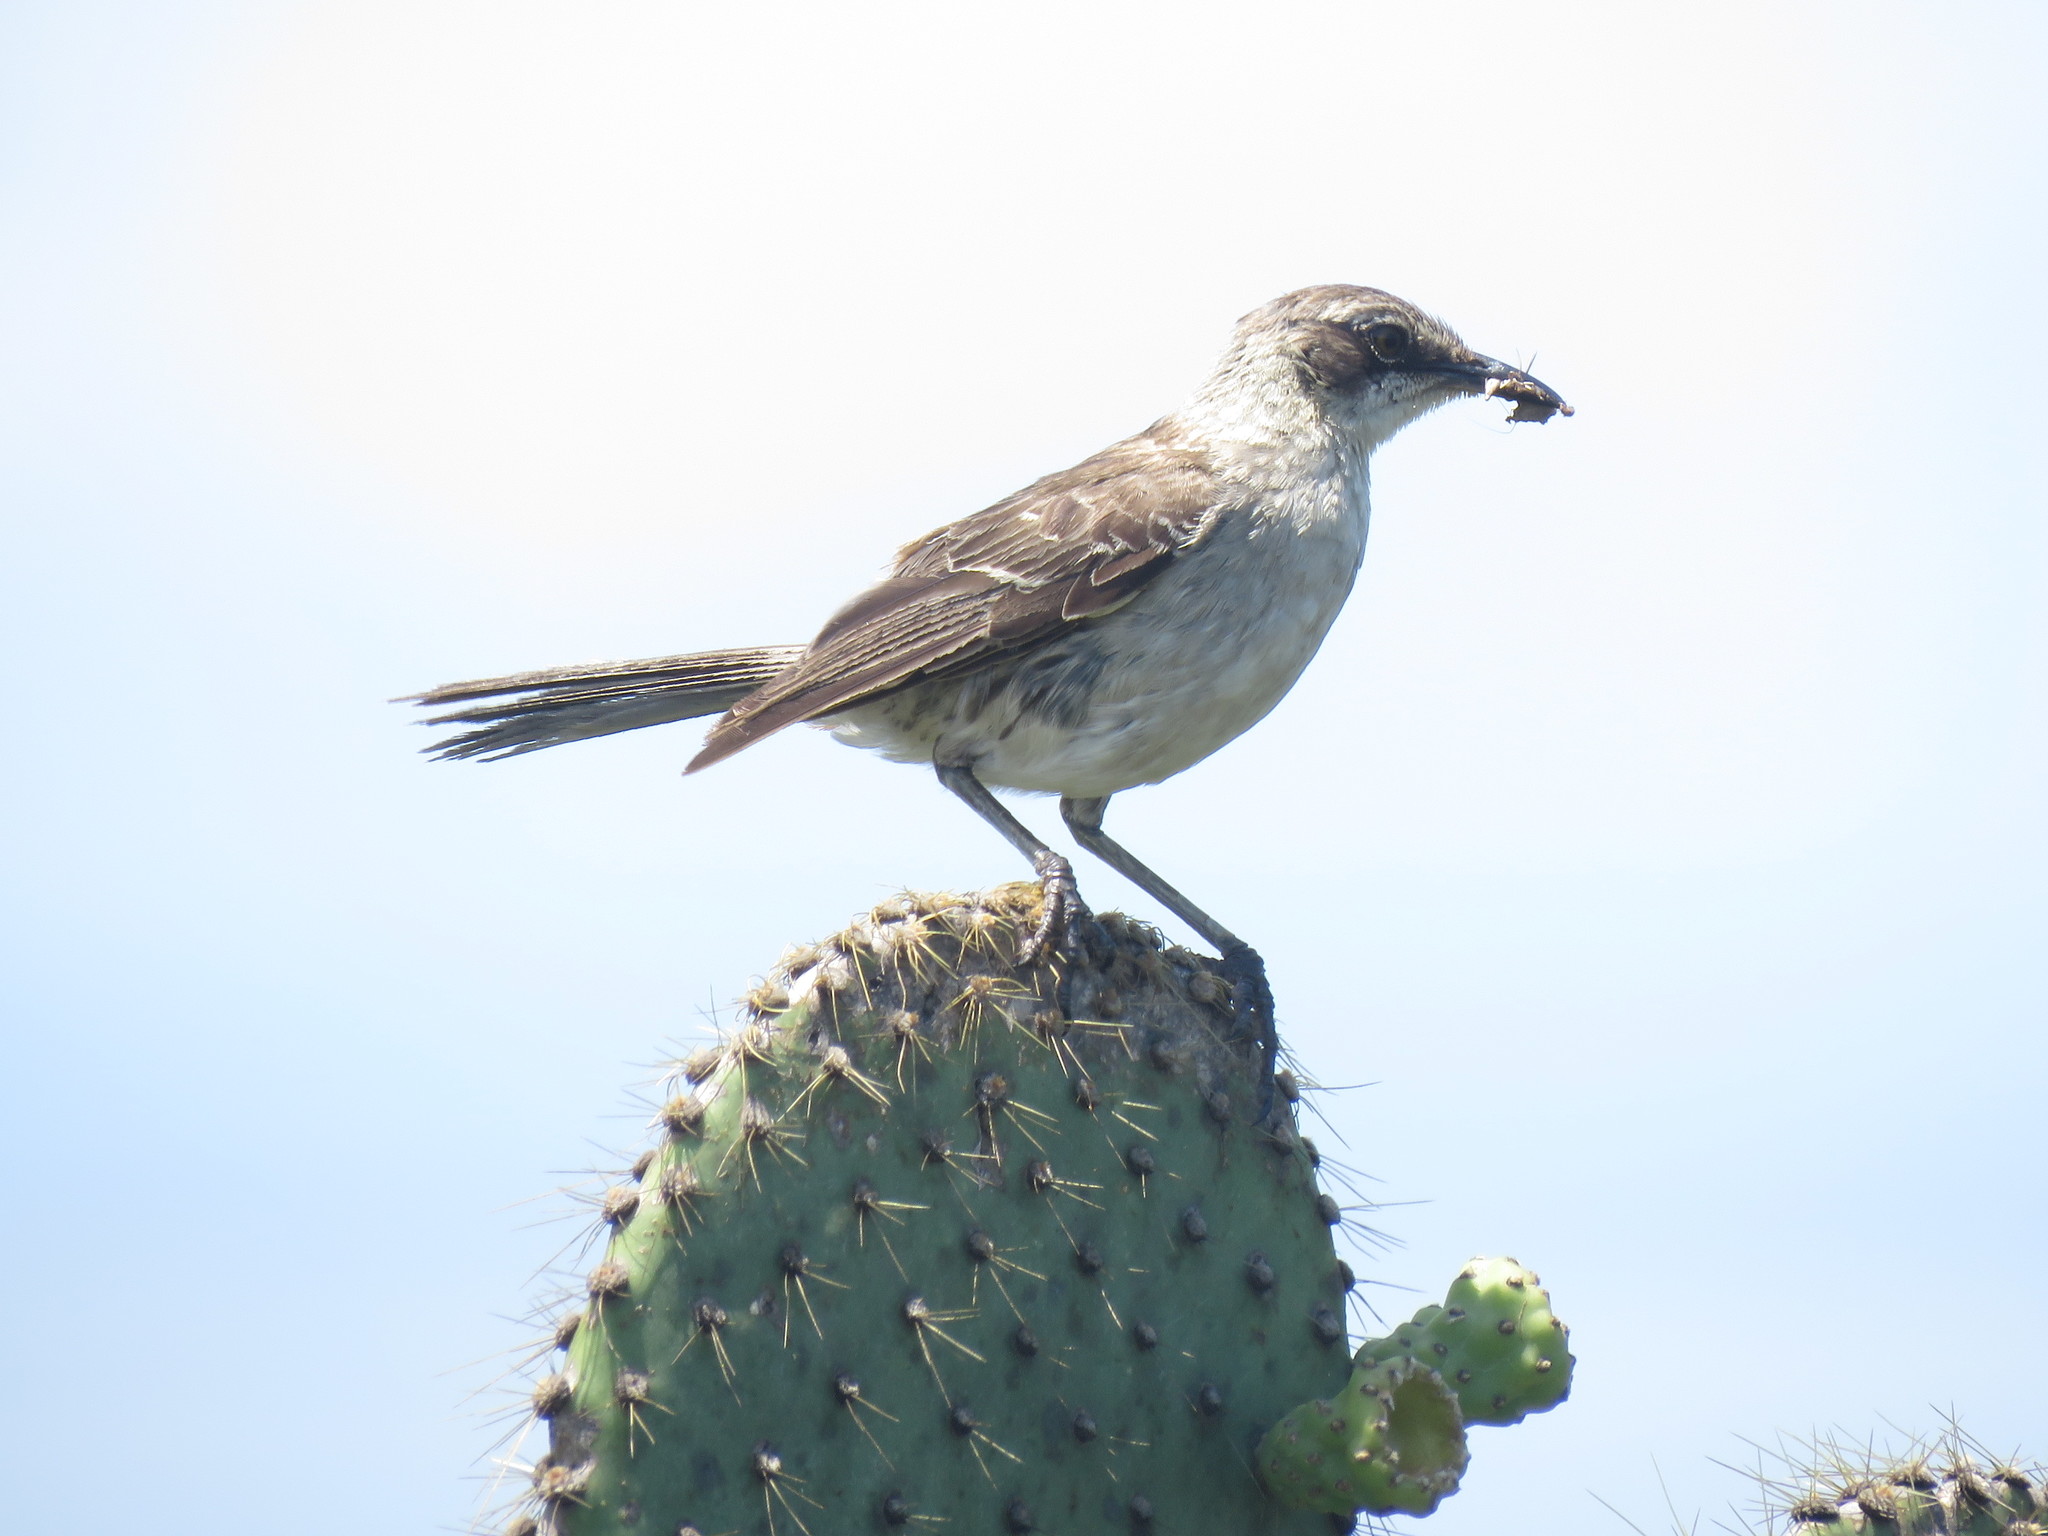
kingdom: Animalia
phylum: Chordata
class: Aves
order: Passeriformes
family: Mimidae
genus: Mimus
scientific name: Mimus parvulus
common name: Galapagos mockingbird
